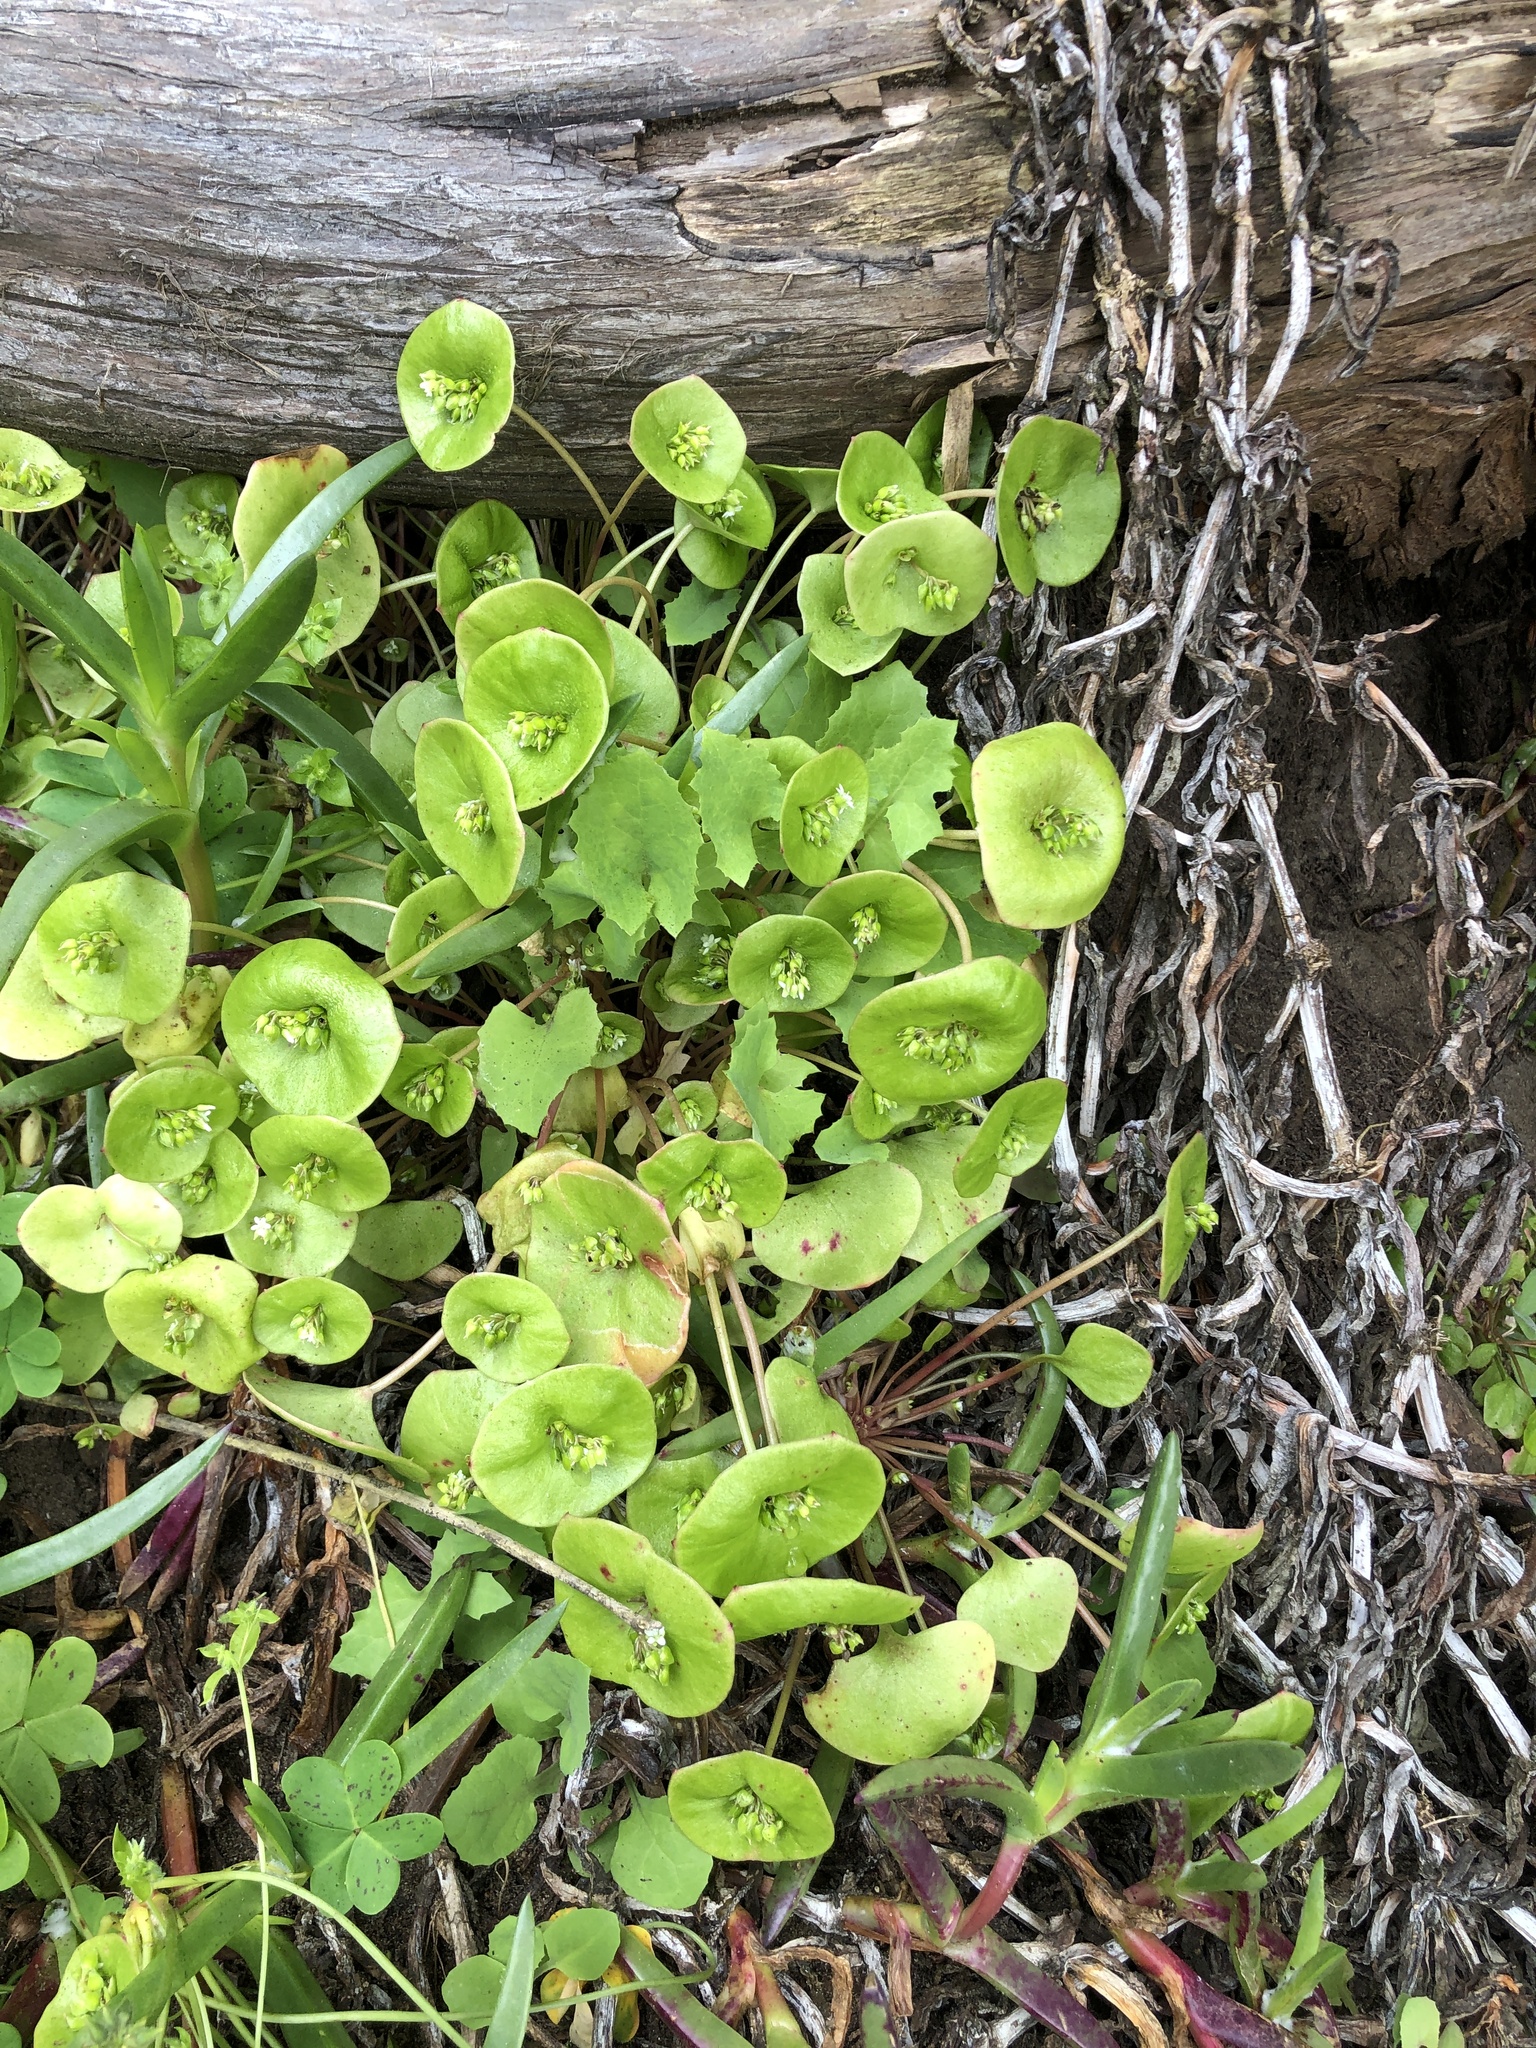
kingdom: Plantae
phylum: Tracheophyta
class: Magnoliopsida
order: Caryophyllales
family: Montiaceae
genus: Claytonia
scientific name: Claytonia perfoliata
